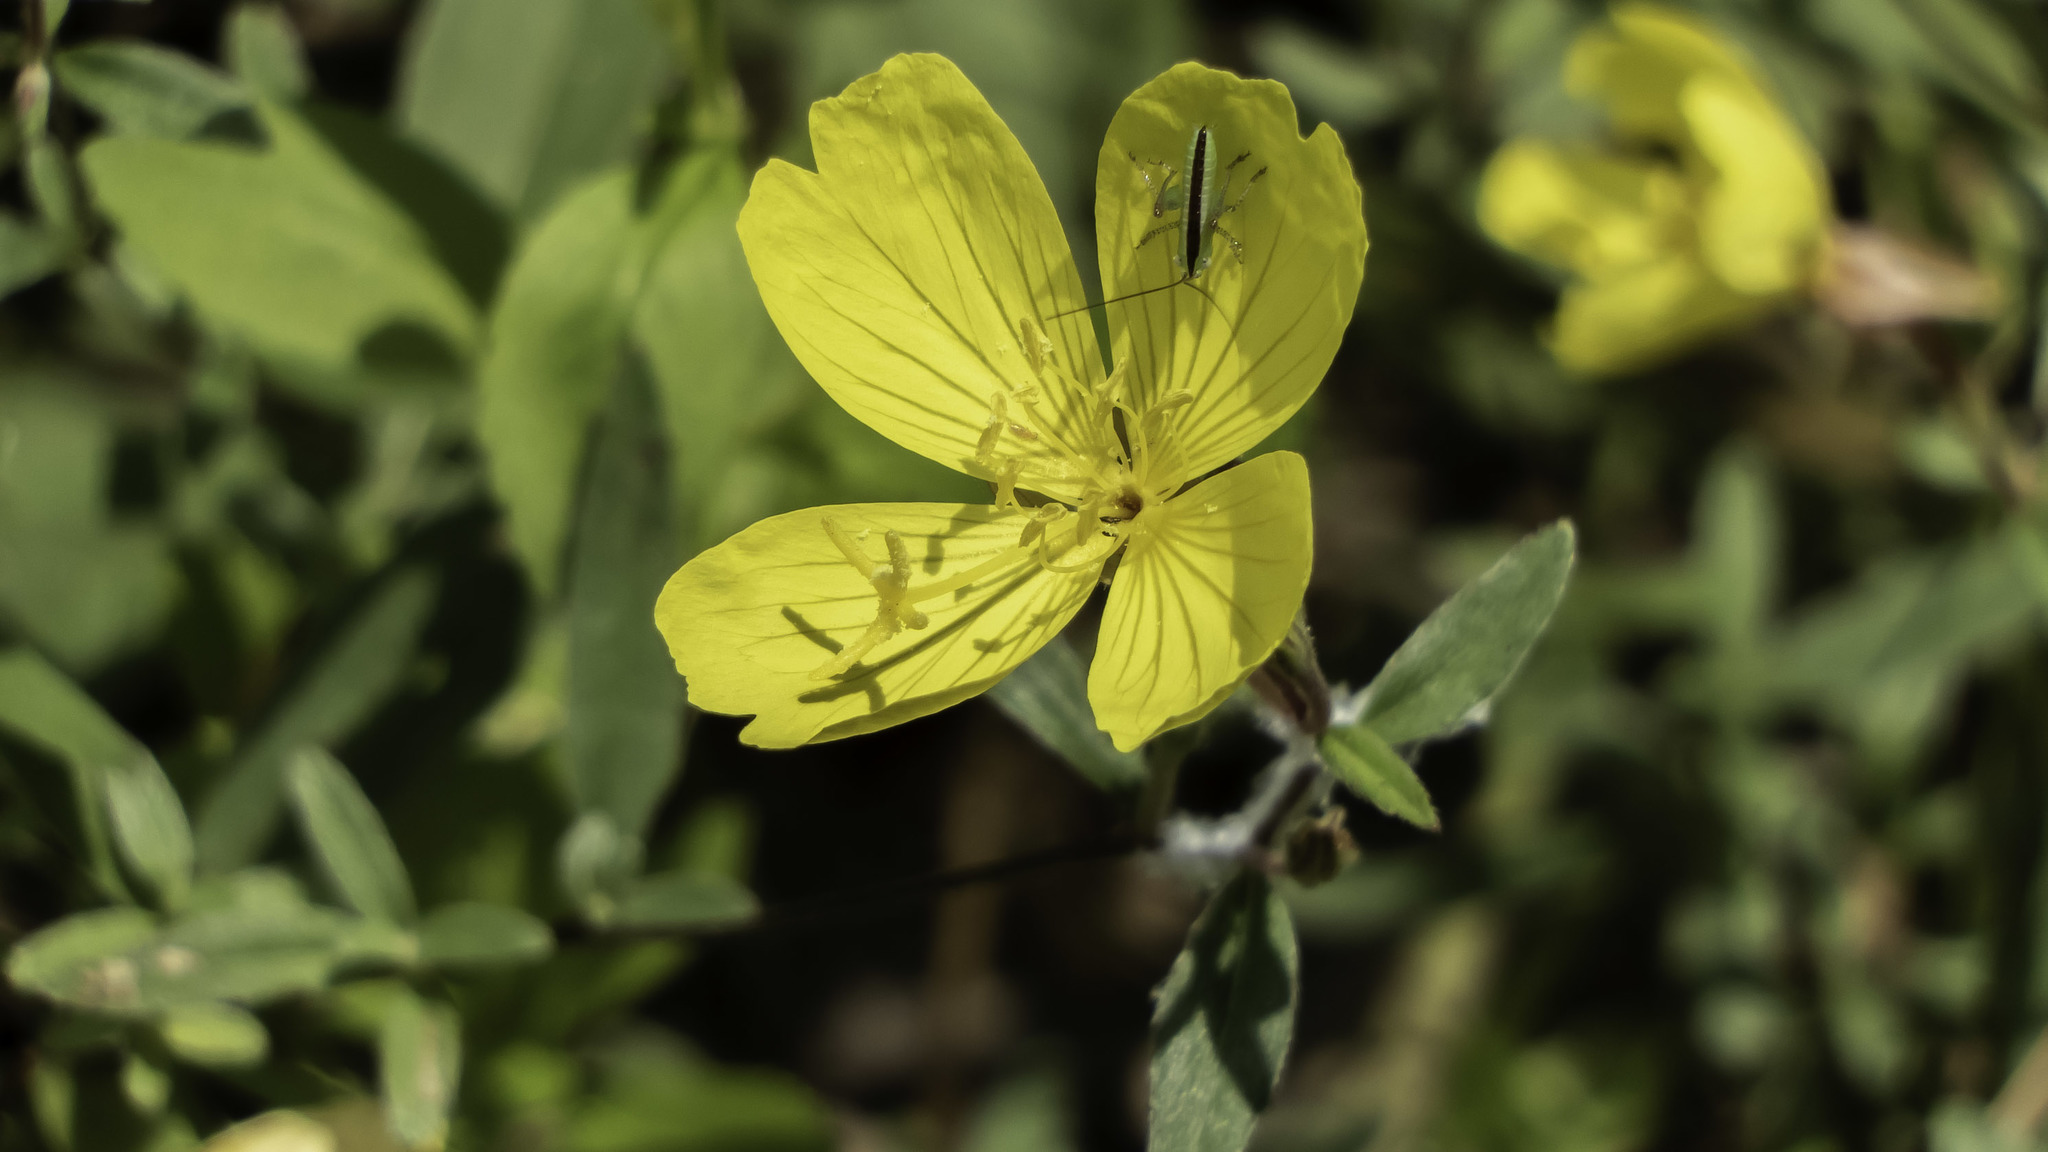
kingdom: Plantae
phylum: Tracheophyta
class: Magnoliopsida
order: Myrtales
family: Onagraceae
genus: Oenothera
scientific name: Oenothera fruticosa
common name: Southern sundrops
